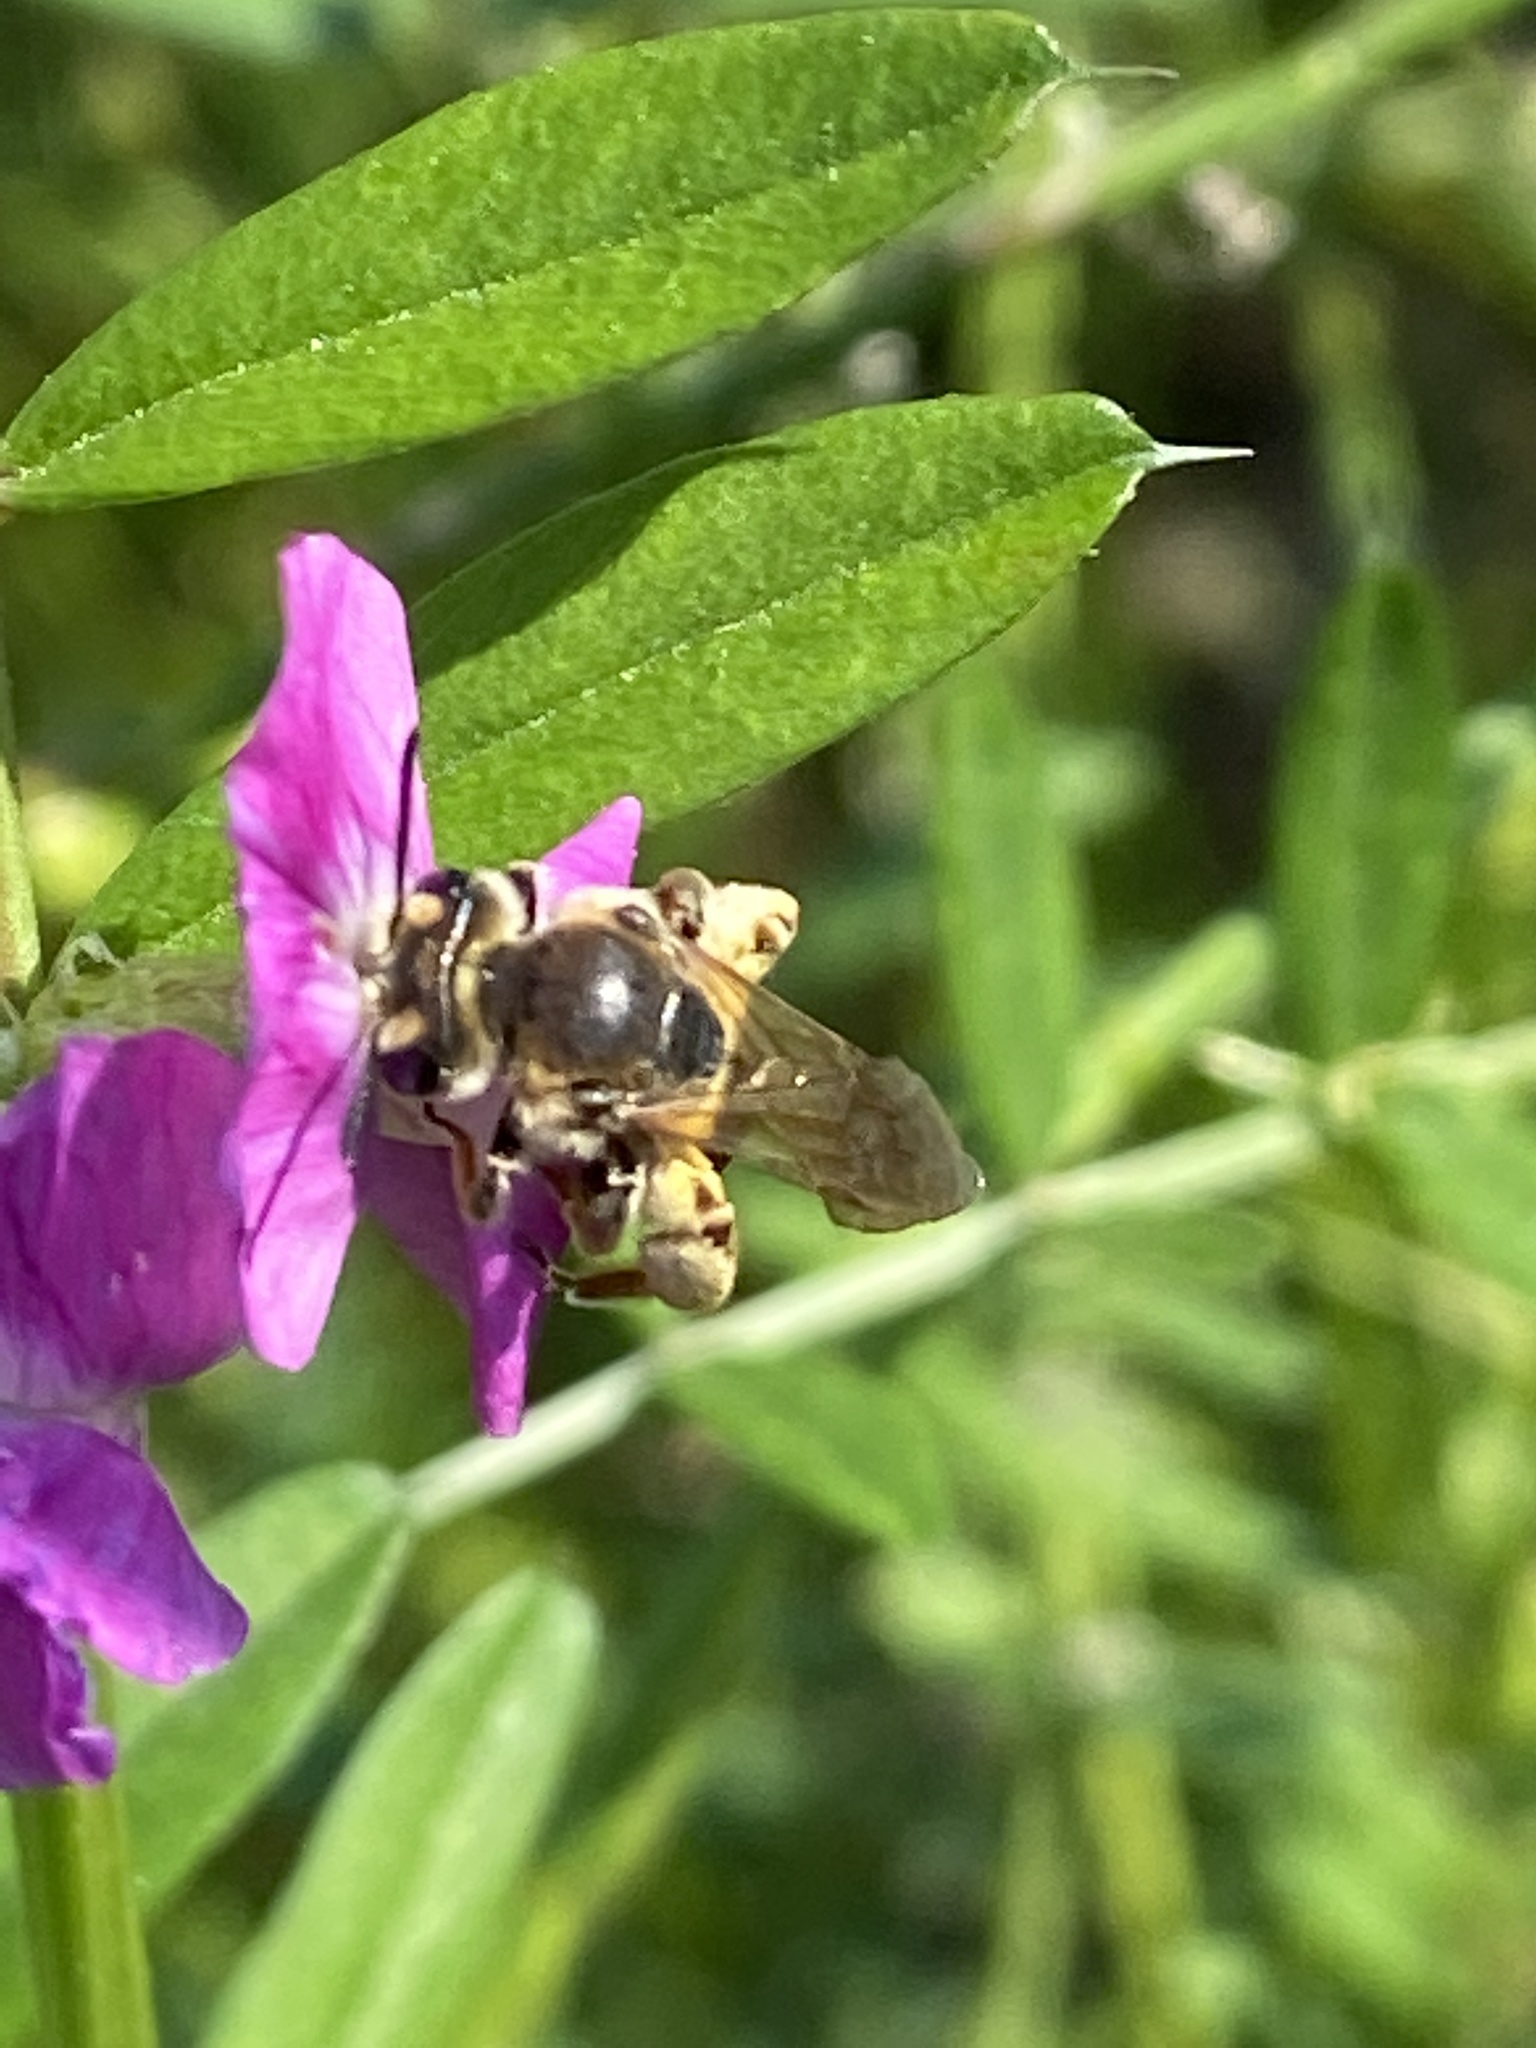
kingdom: Animalia
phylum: Arthropoda
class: Insecta
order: Hymenoptera
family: Andrenidae
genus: Andrena
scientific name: Andrena wilkella
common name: Wilke's mining bee
